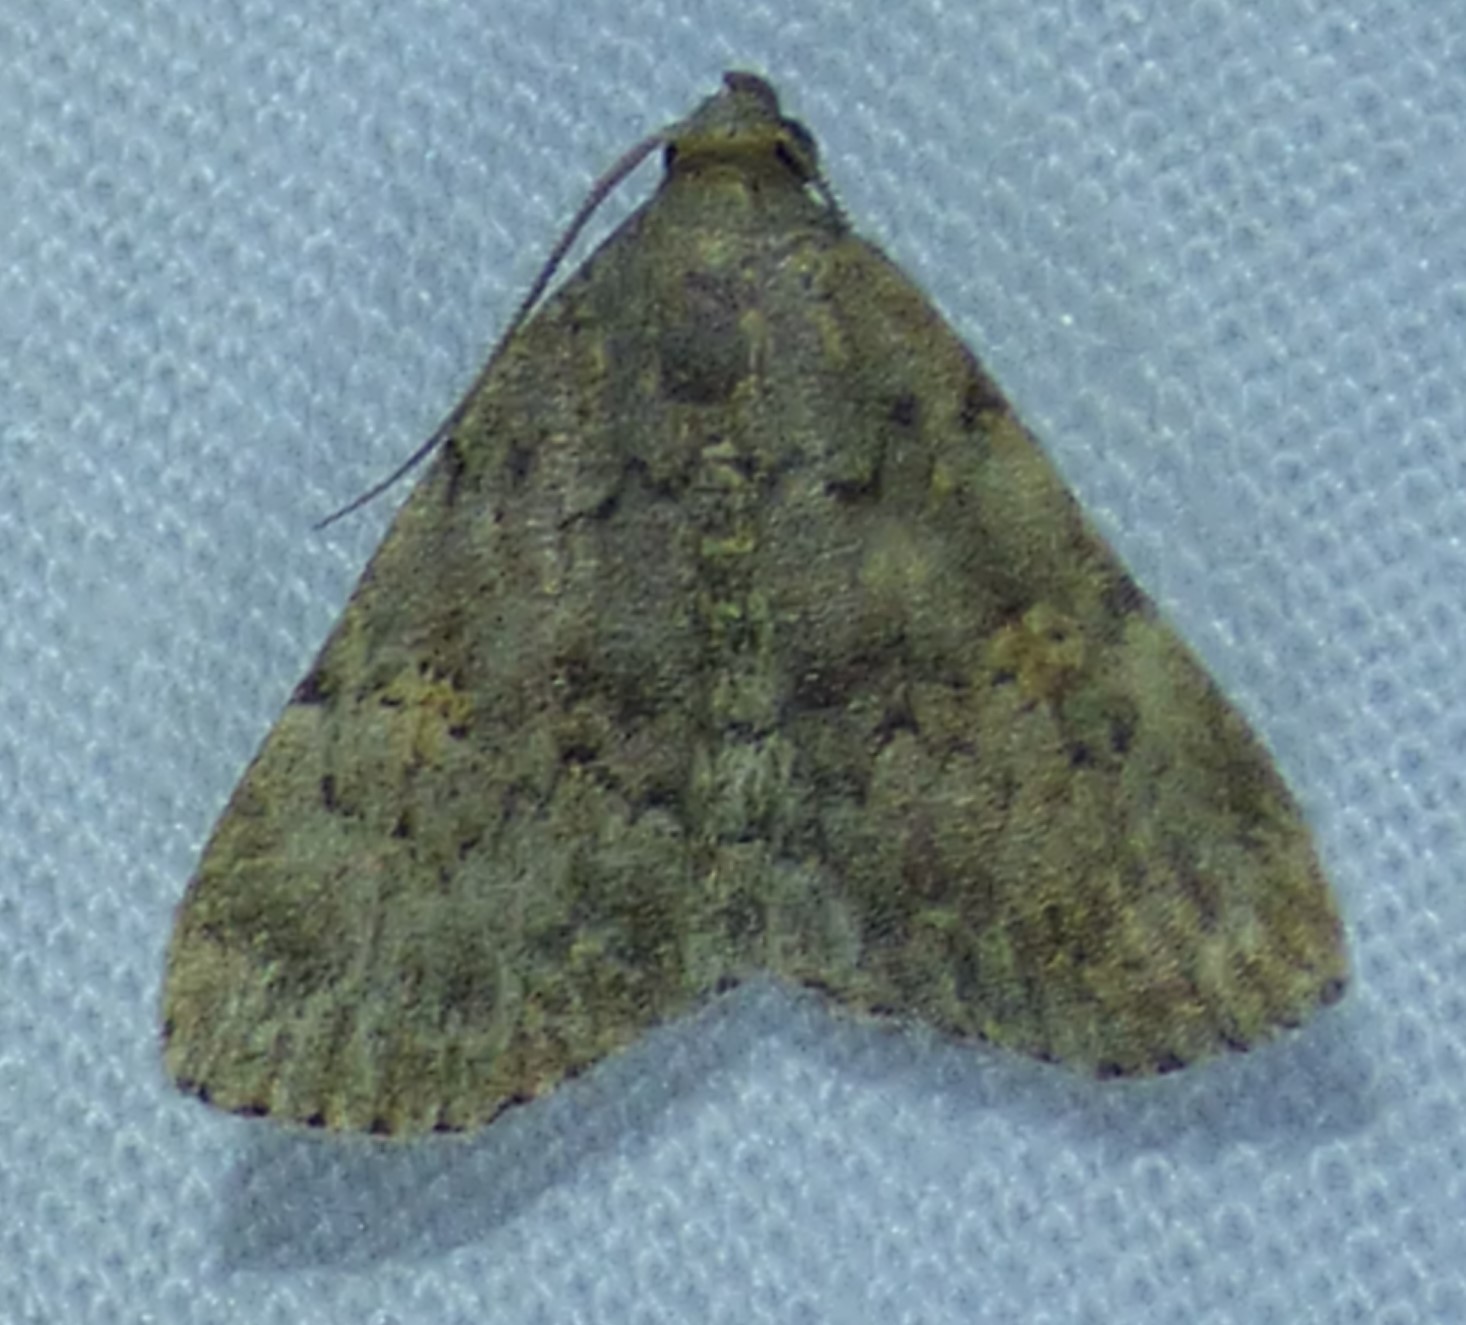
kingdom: Animalia
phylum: Arthropoda
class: Insecta
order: Lepidoptera
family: Erebidae
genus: Idia
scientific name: Idia aemula
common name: Common idia moth
